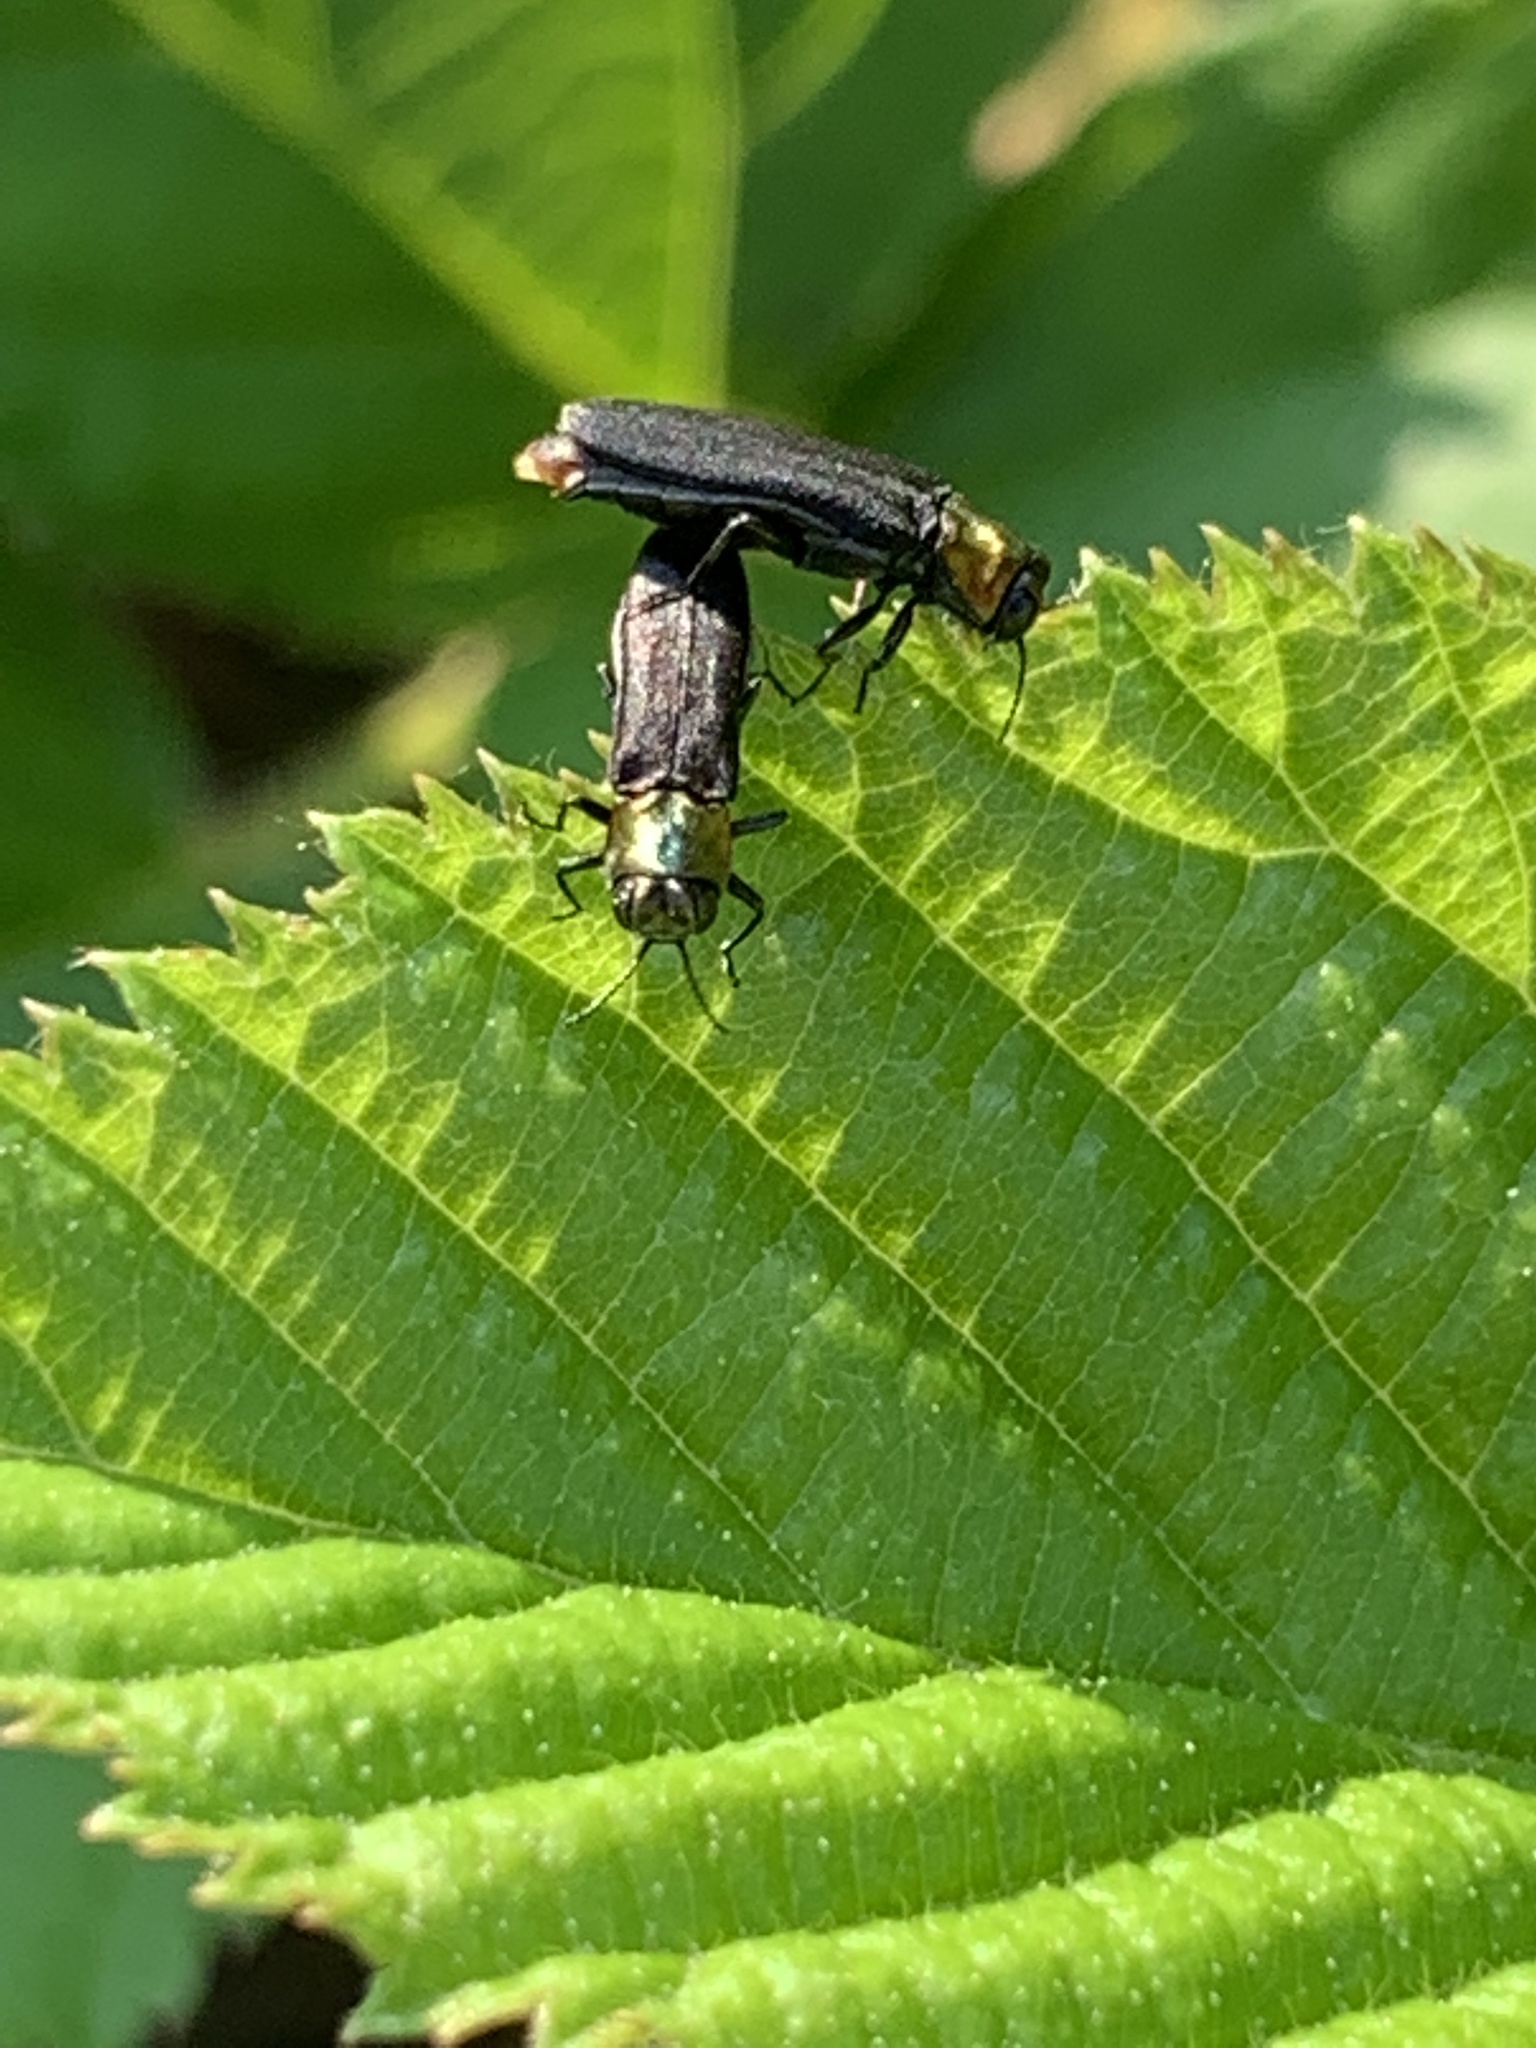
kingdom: Animalia
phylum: Arthropoda
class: Insecta
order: Coleoptera
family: Buprestidae
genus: Agrilus
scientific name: Agrilus ruficollis
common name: Red-necked cane borer beetle
